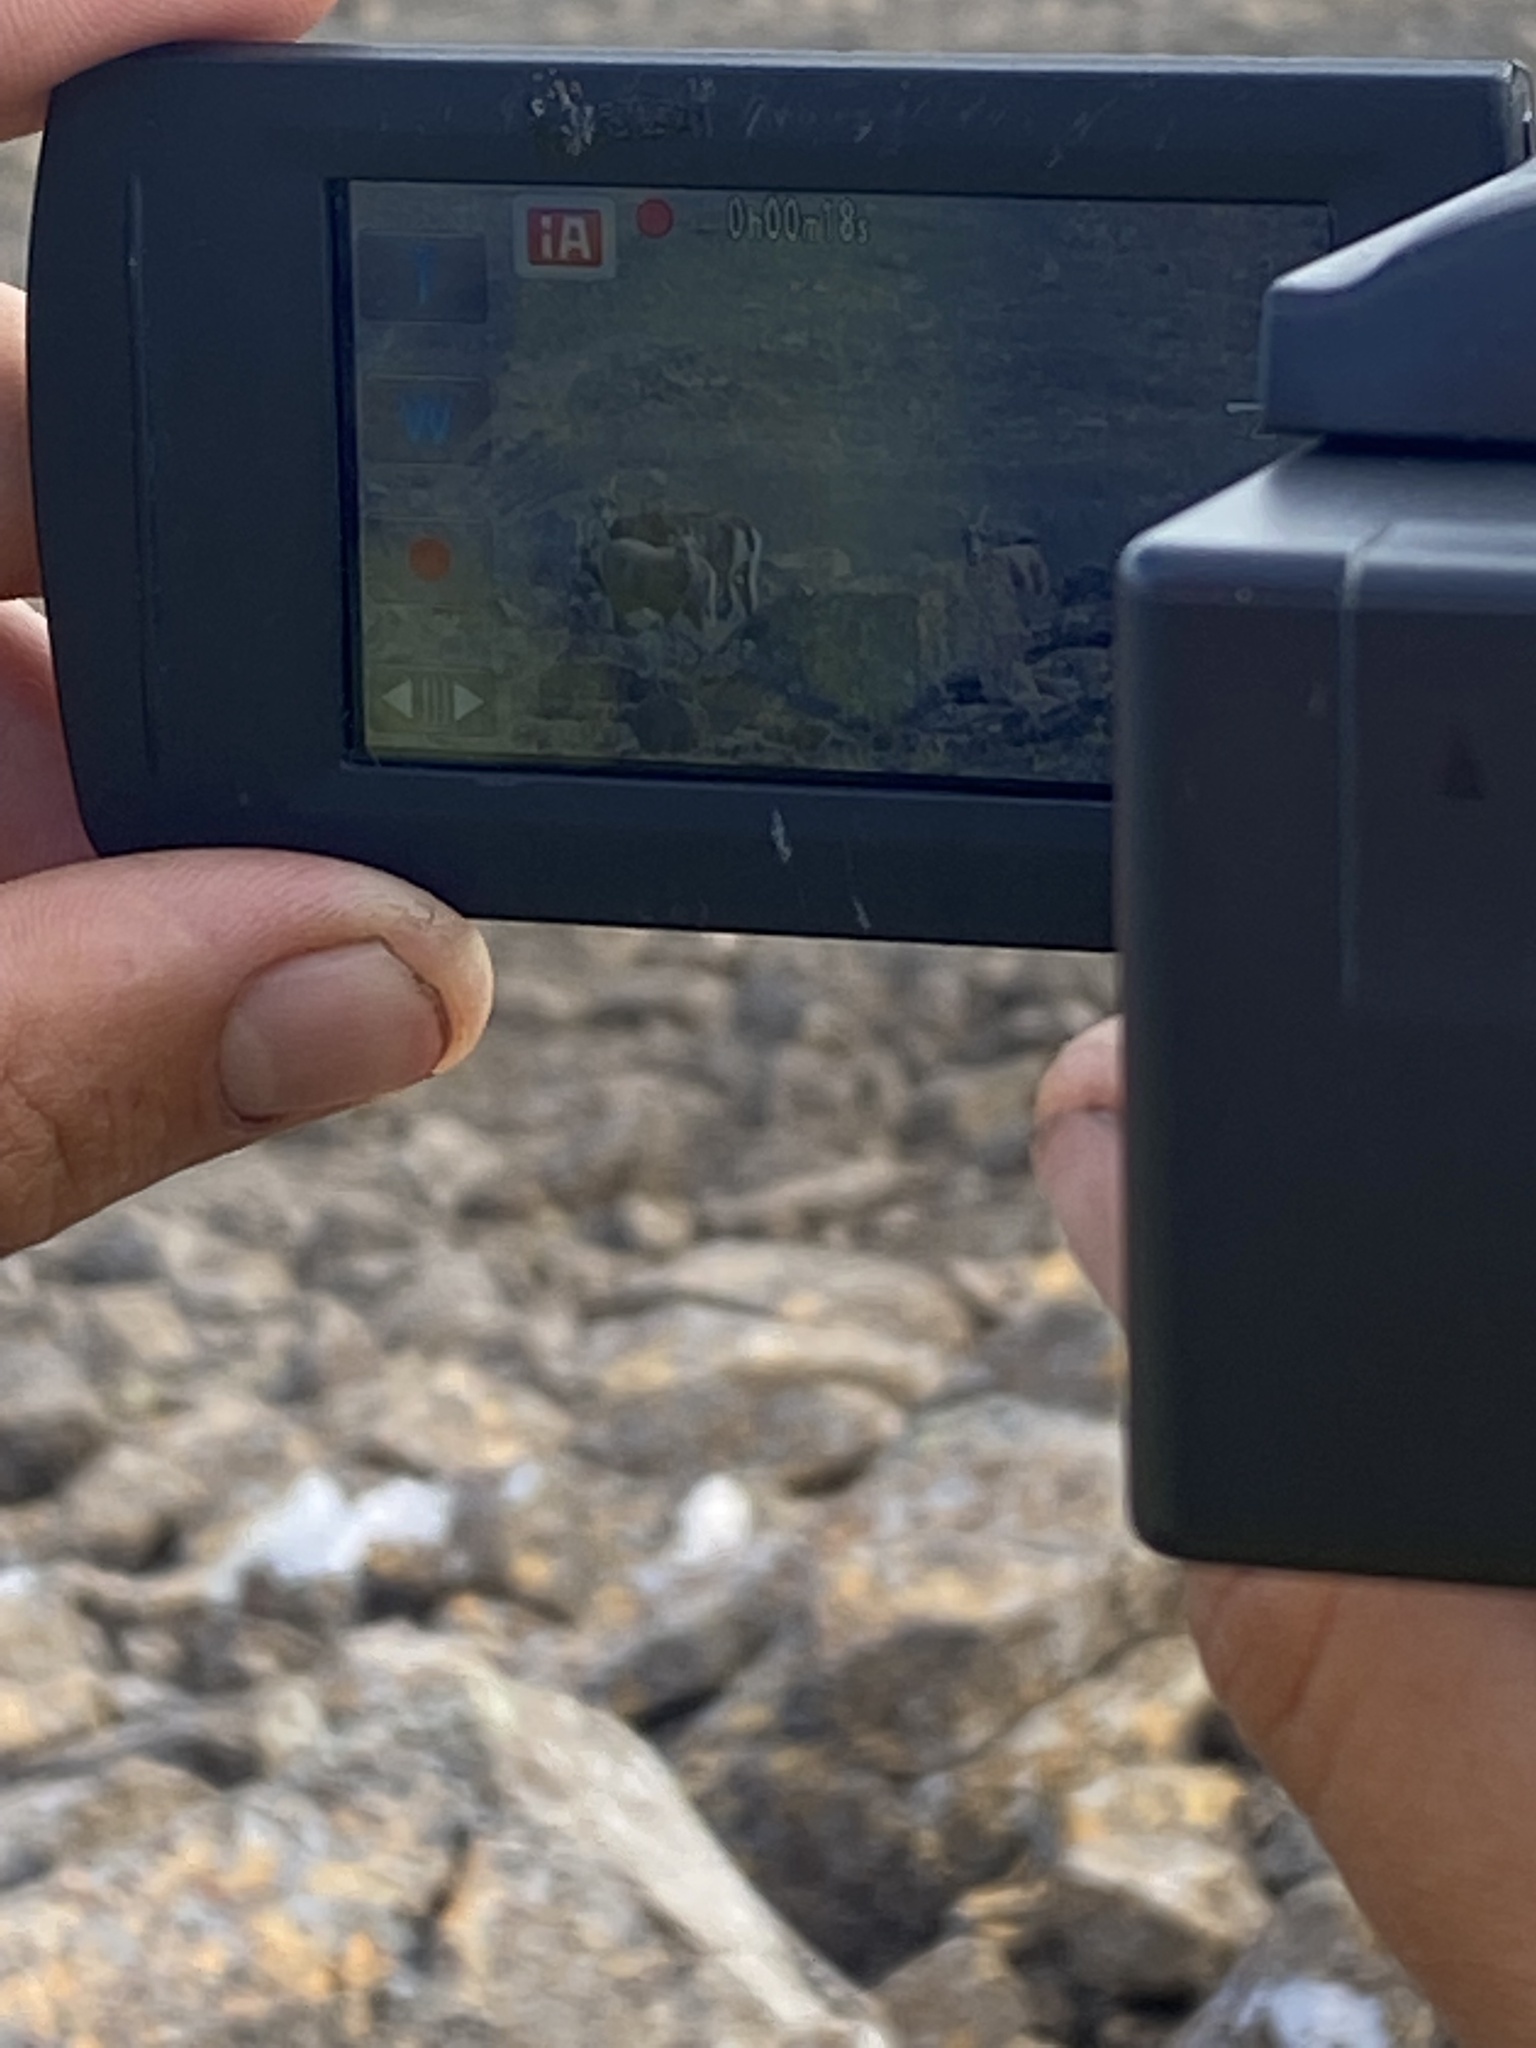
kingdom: Animalia
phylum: Chordata
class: Mammalia
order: Artiodactyla
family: Bovidae
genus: Ovis
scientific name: Ovis nivicola
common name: Snow sheep
